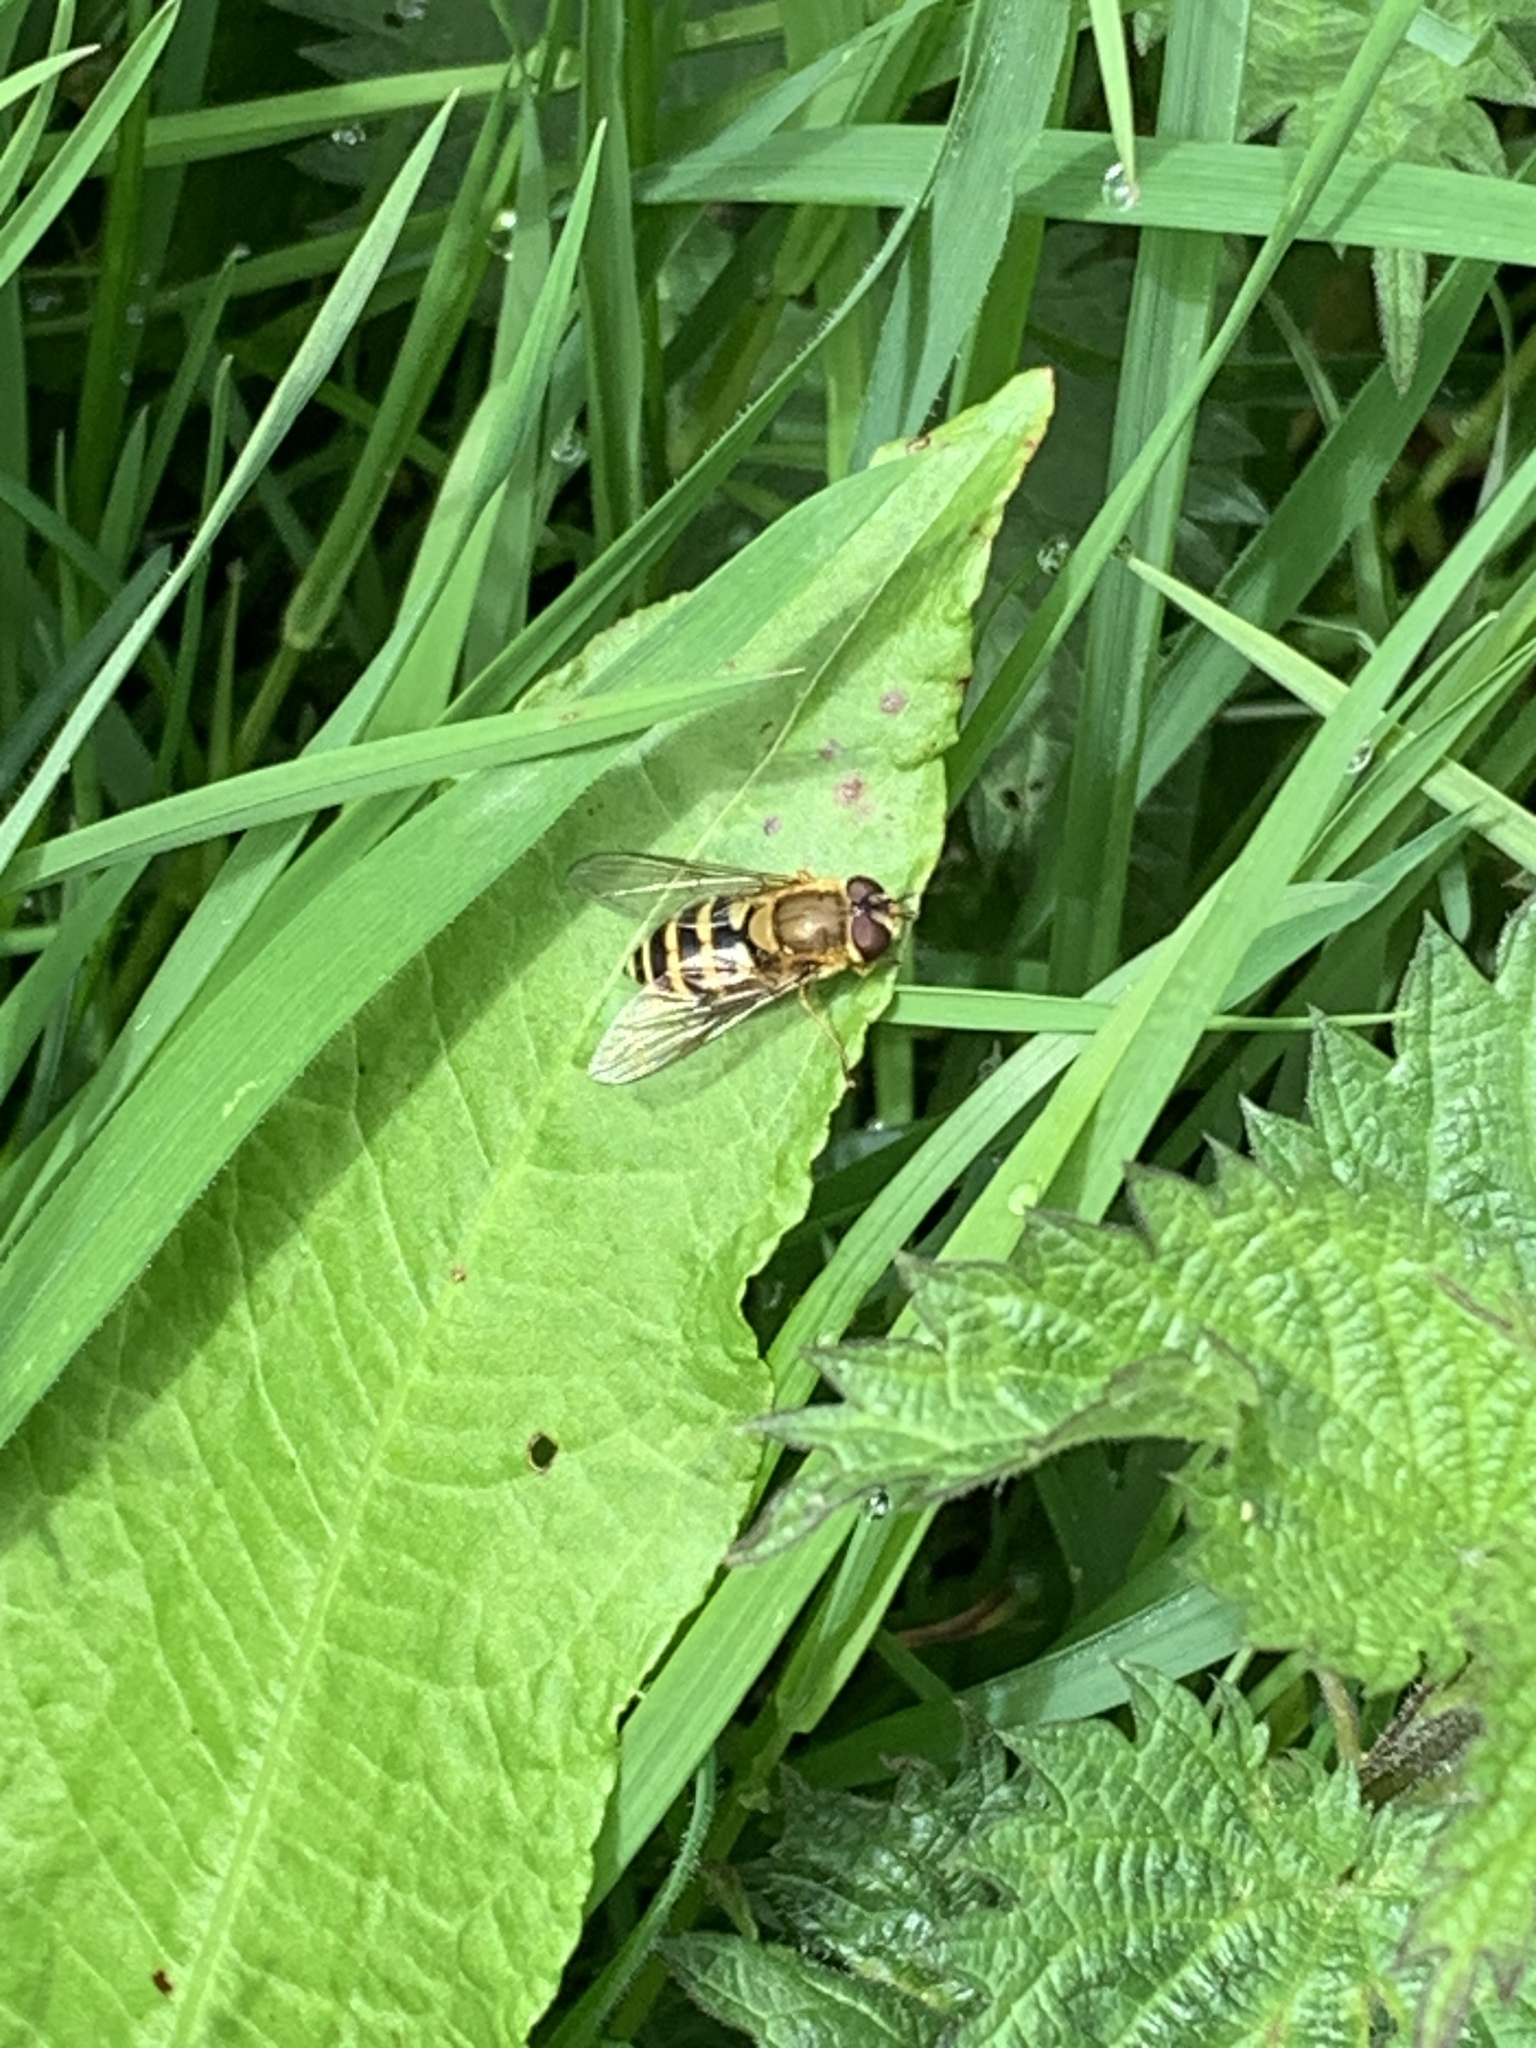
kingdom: Animalia
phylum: Arthropoda
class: Insecta
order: Diptera
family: Syrphidae
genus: Syrphus
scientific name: Syrphus
